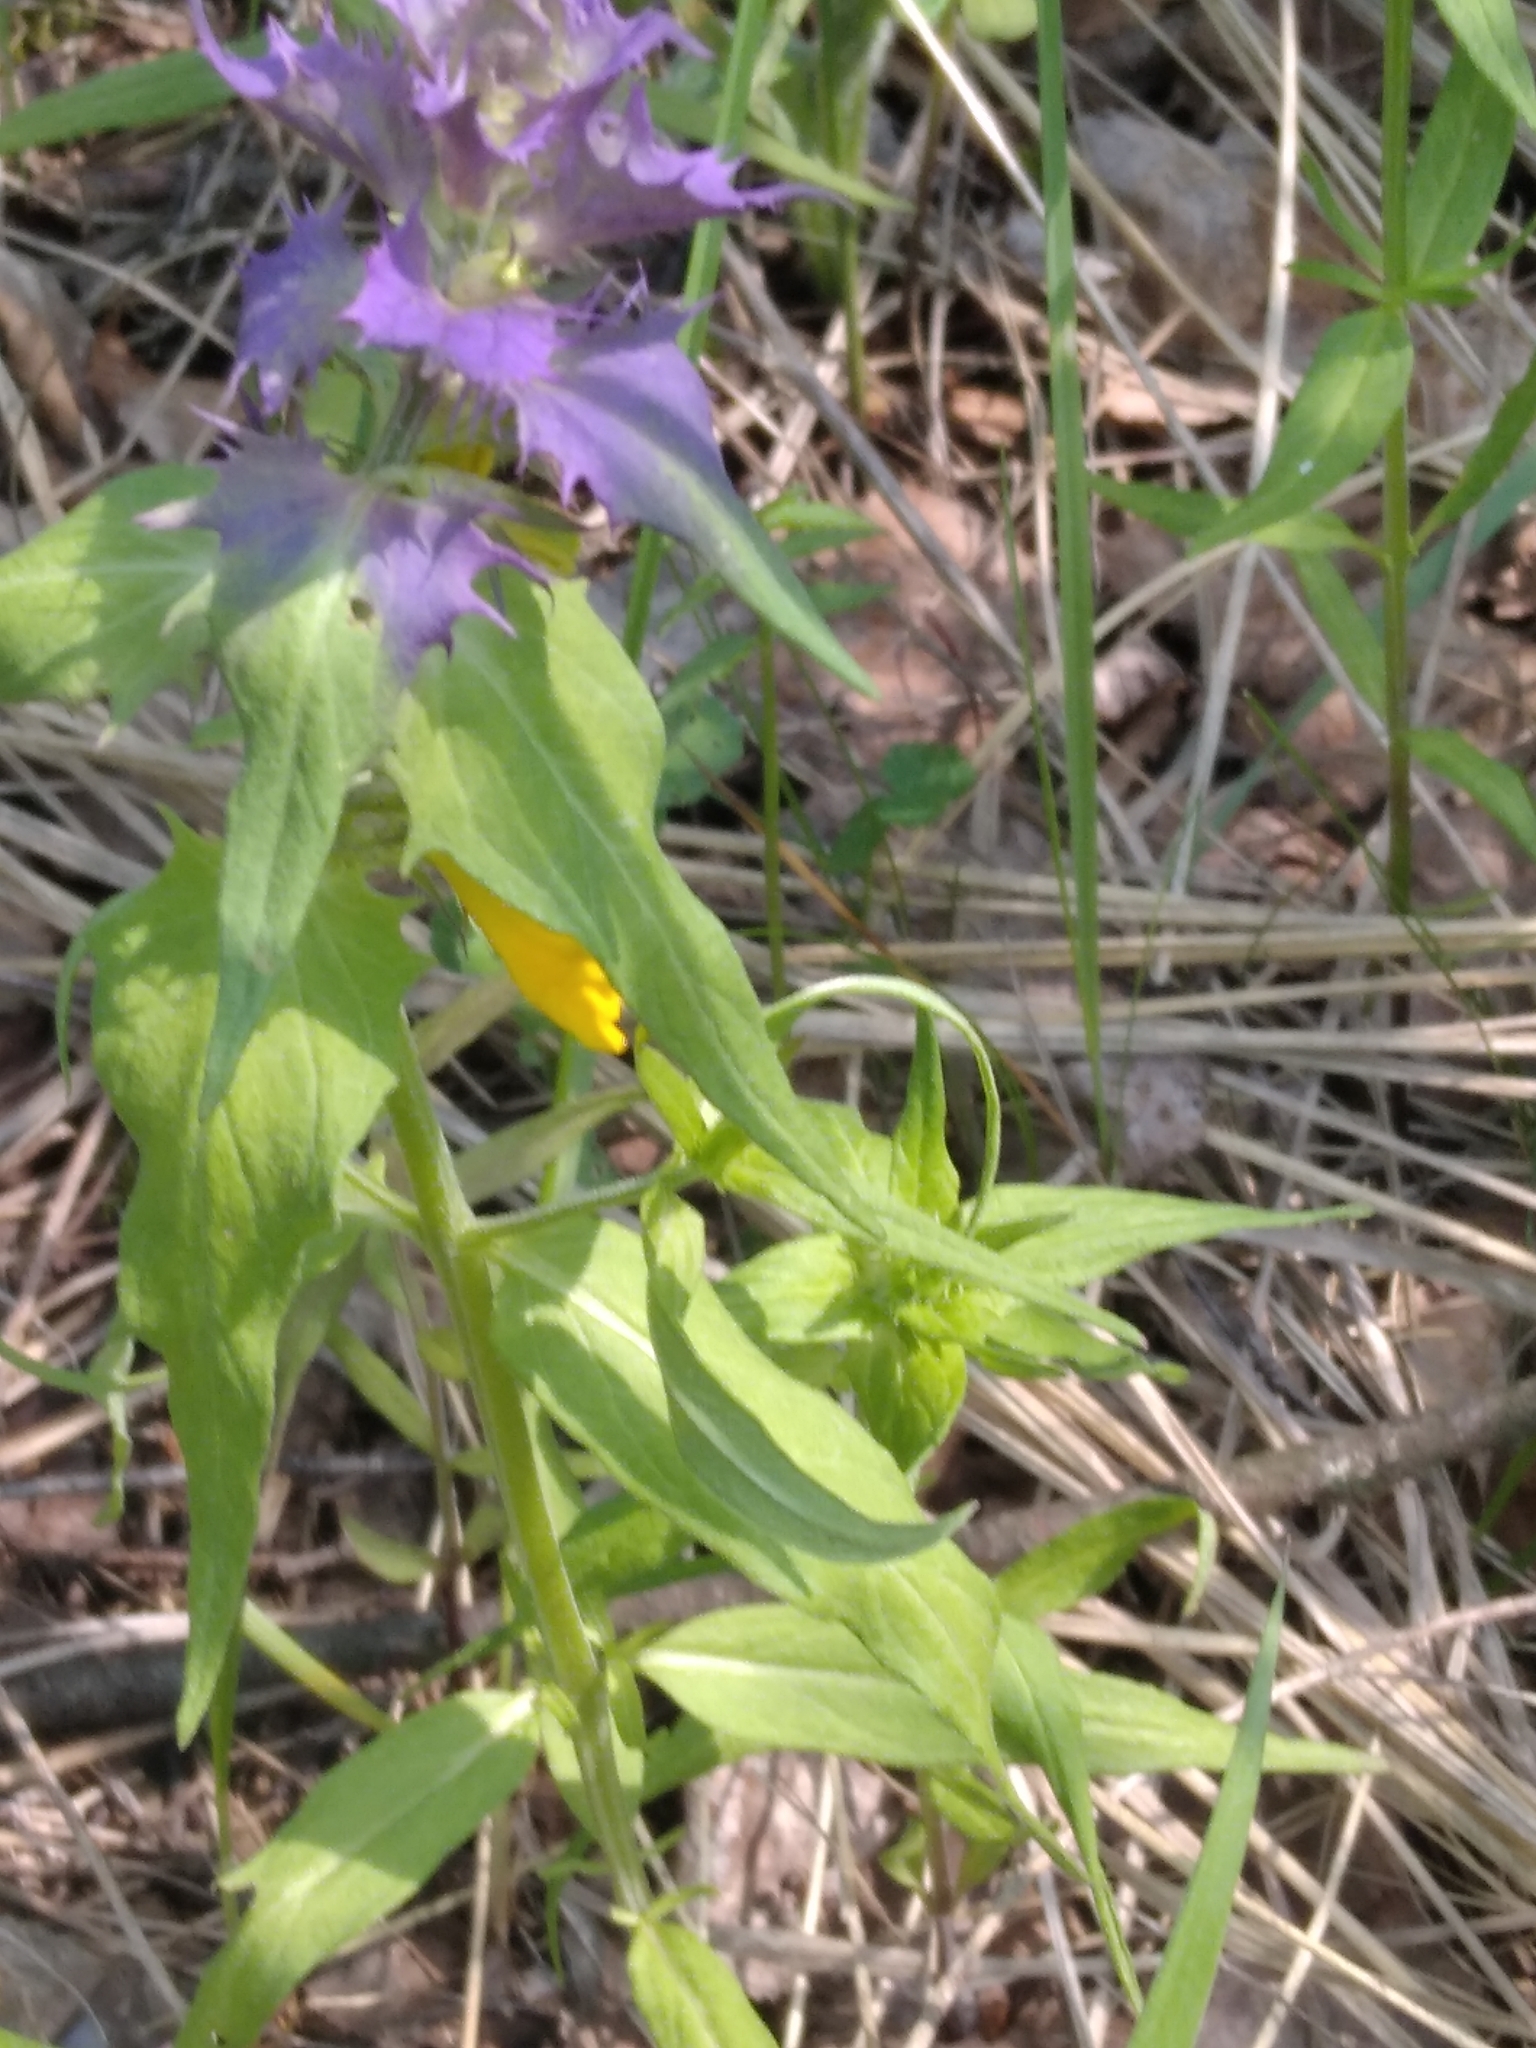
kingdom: Plantae
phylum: Tracheophyta
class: Magnoliopsida
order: Lamiales
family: Orobanchaceae
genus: Melampyrum
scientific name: Melampyrum nemorosum
